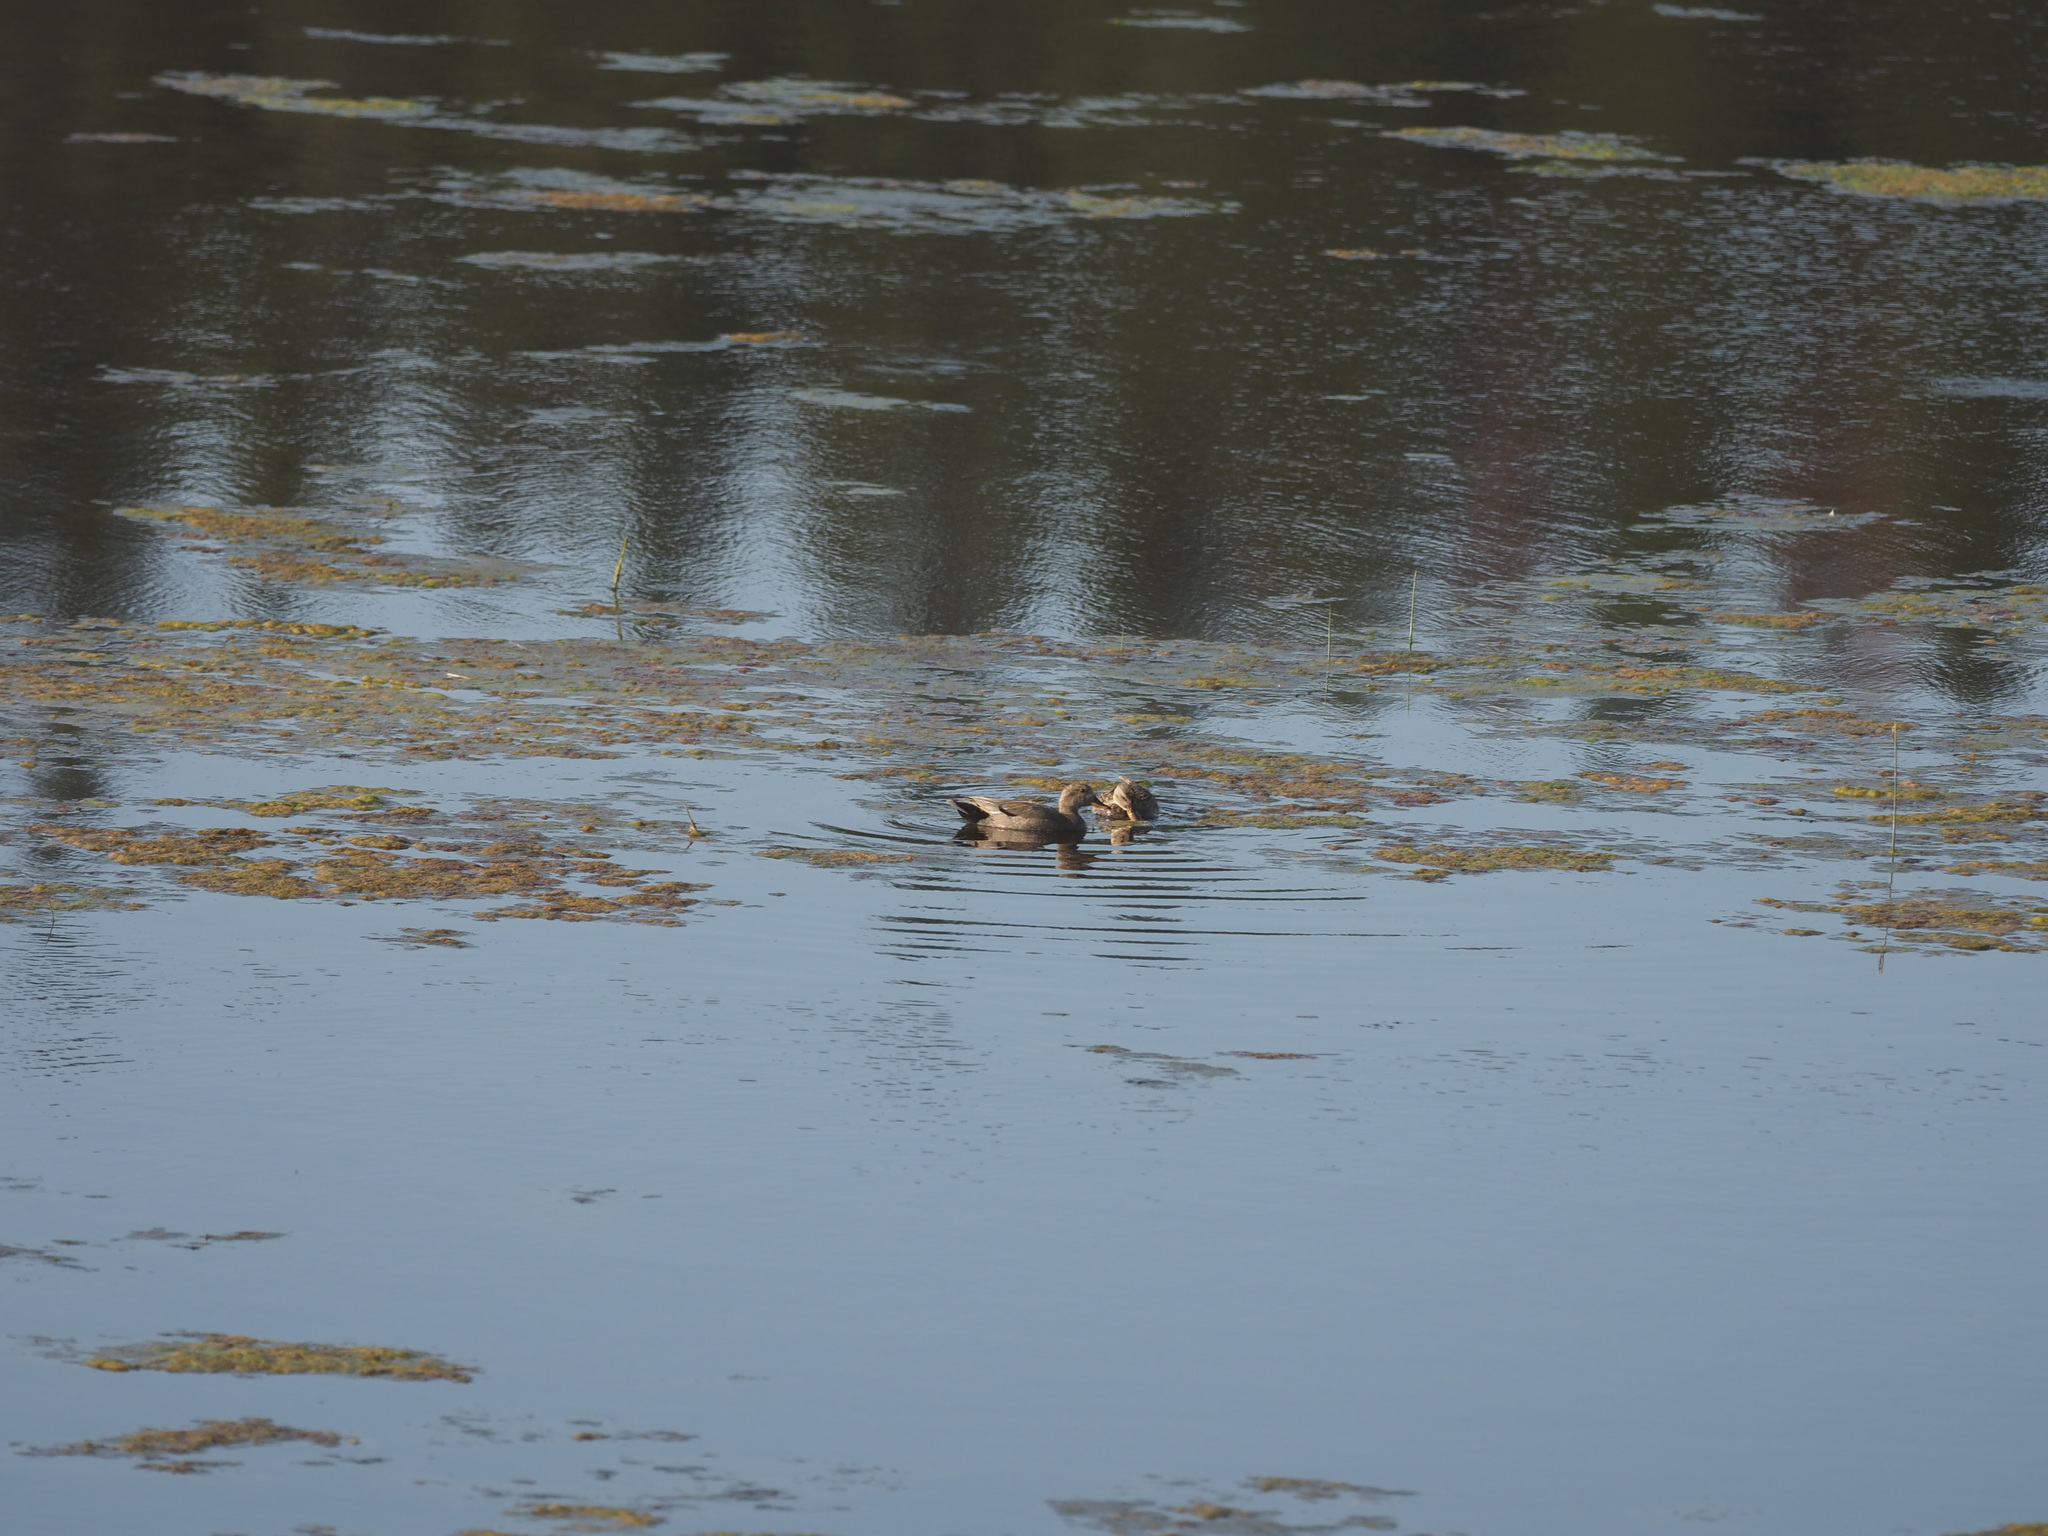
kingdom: Animalia
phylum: Chordata
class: Aves
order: Anseriformes
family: Anatidae
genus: Mareca
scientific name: Mareca strepera
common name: Gadwall
